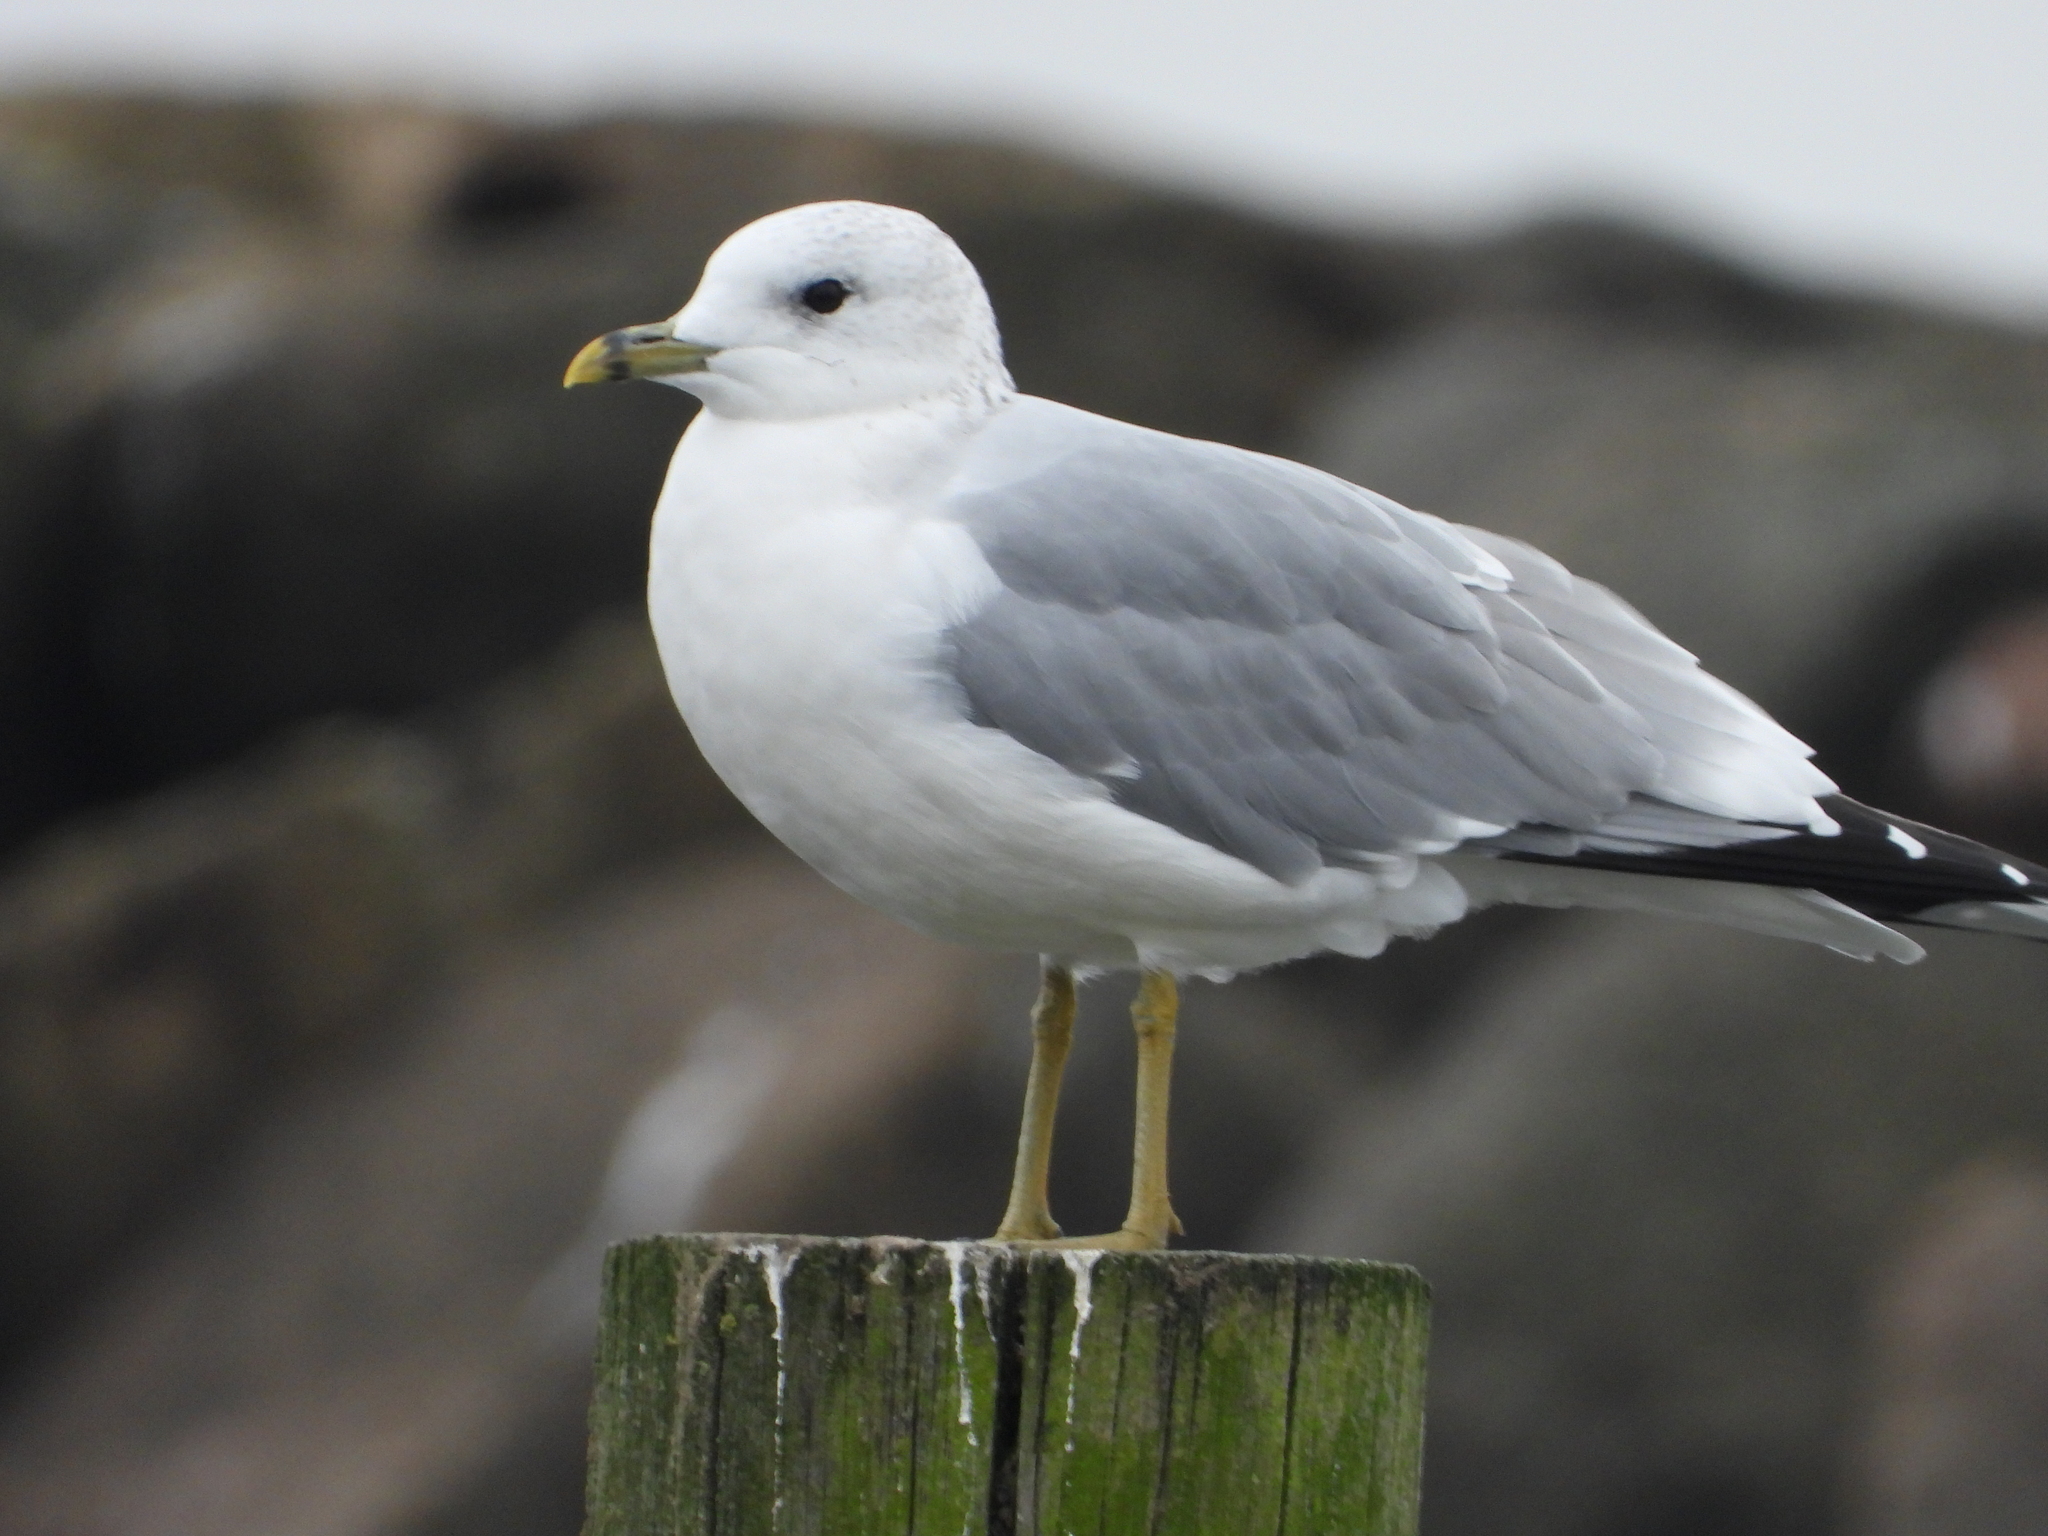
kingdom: Animalia
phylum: Chordata
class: Aves
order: Charadriiformes
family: Laridae
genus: Larus
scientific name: Larus canus
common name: Mew gull
